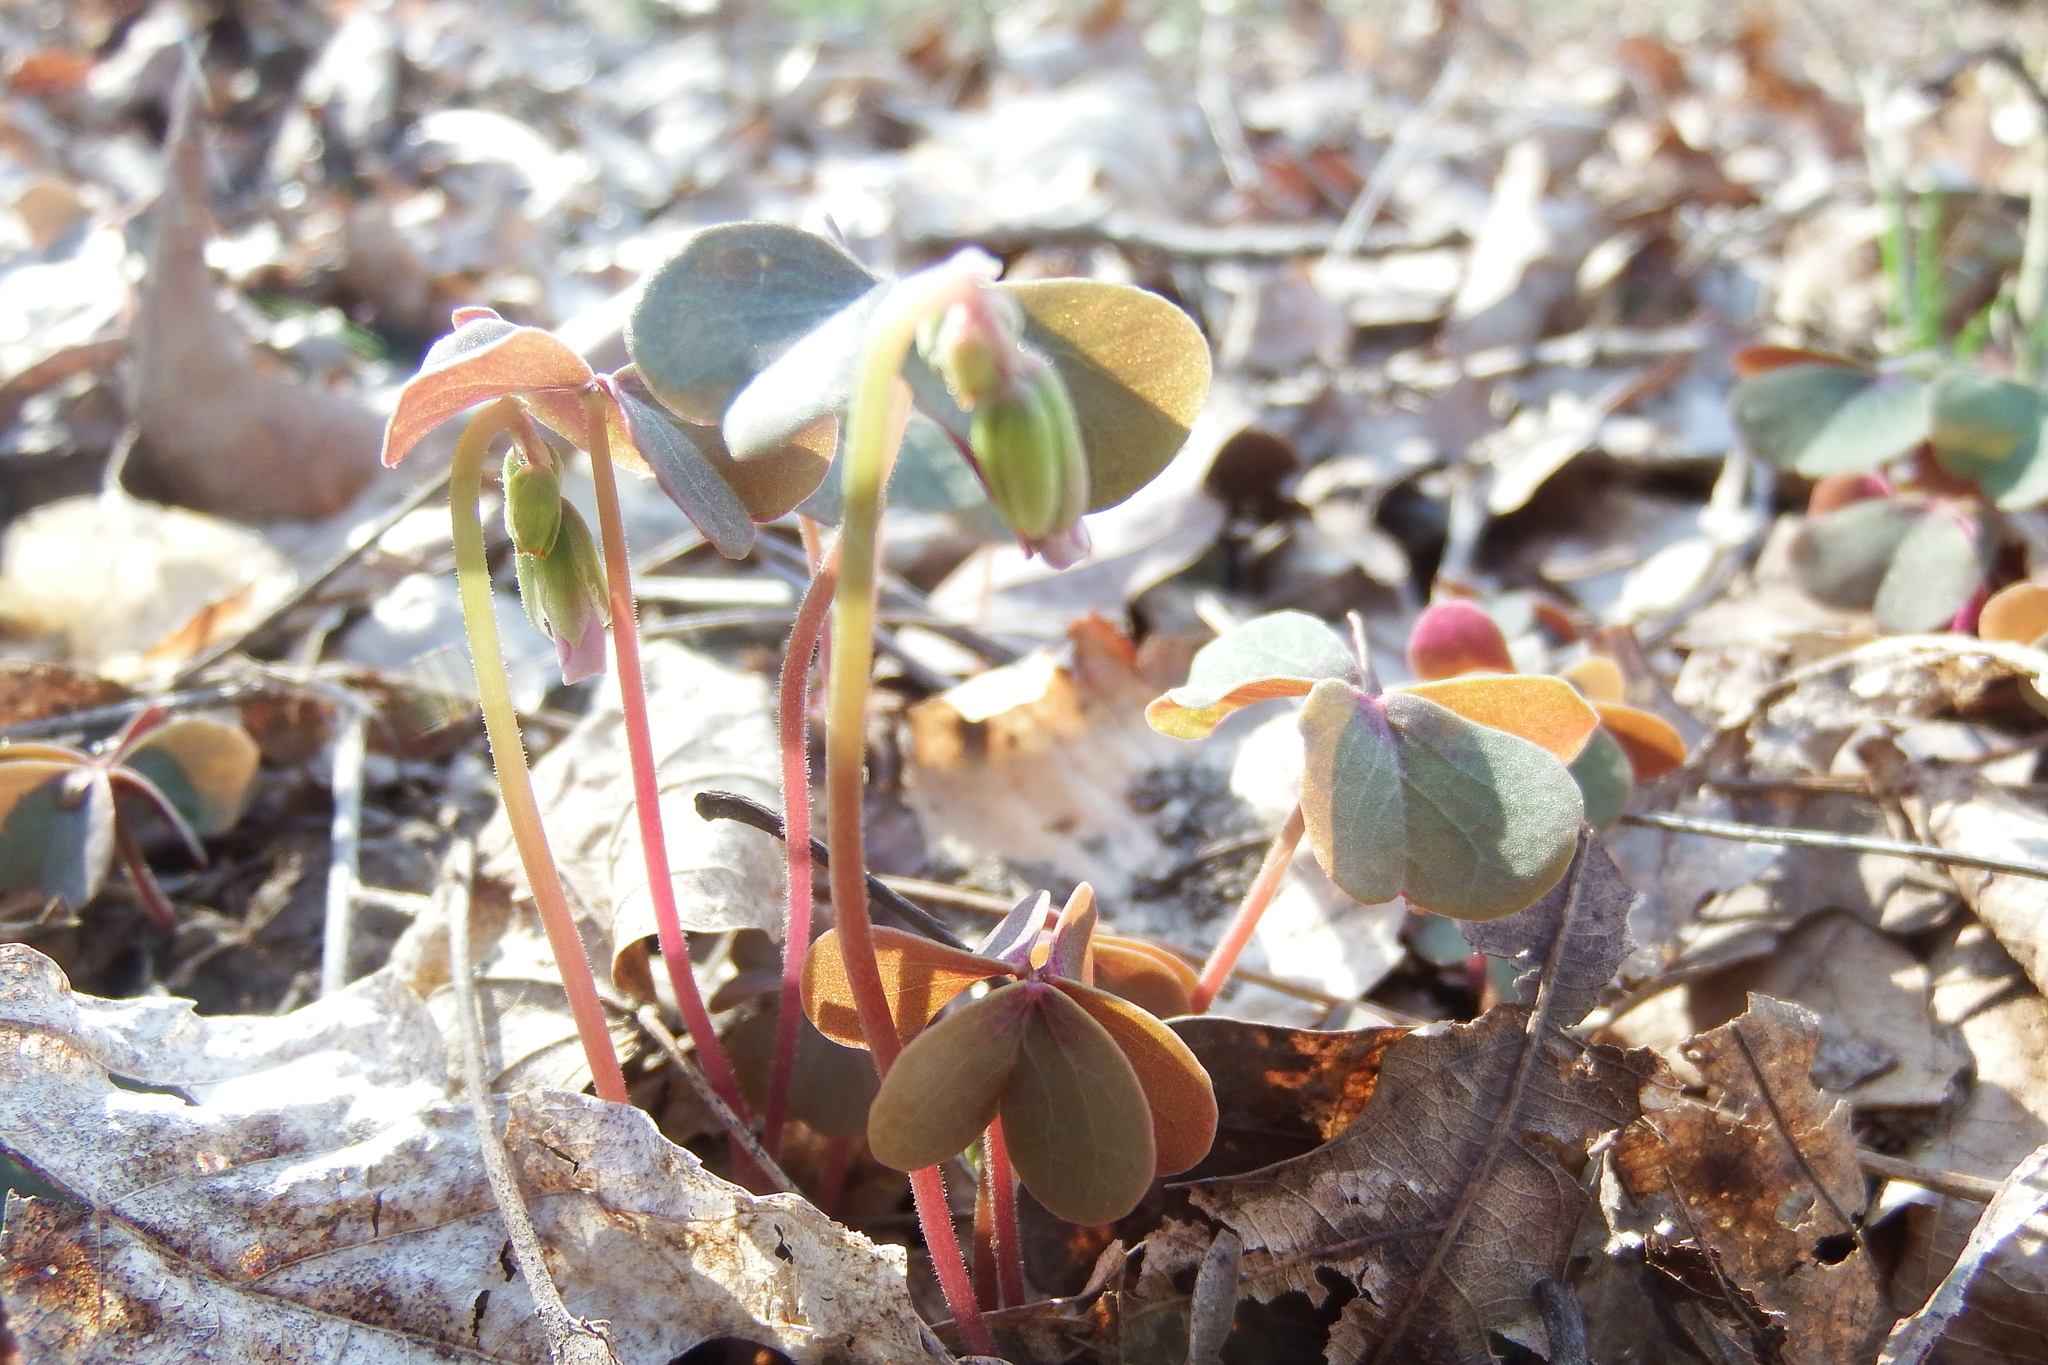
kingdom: Plantae
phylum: Tracheophyta
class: Magnoliopsida
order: Oxalidales
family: Oxalidaceae
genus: Oxalis
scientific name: Oxalis violacea
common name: Violet wood-sorrel
